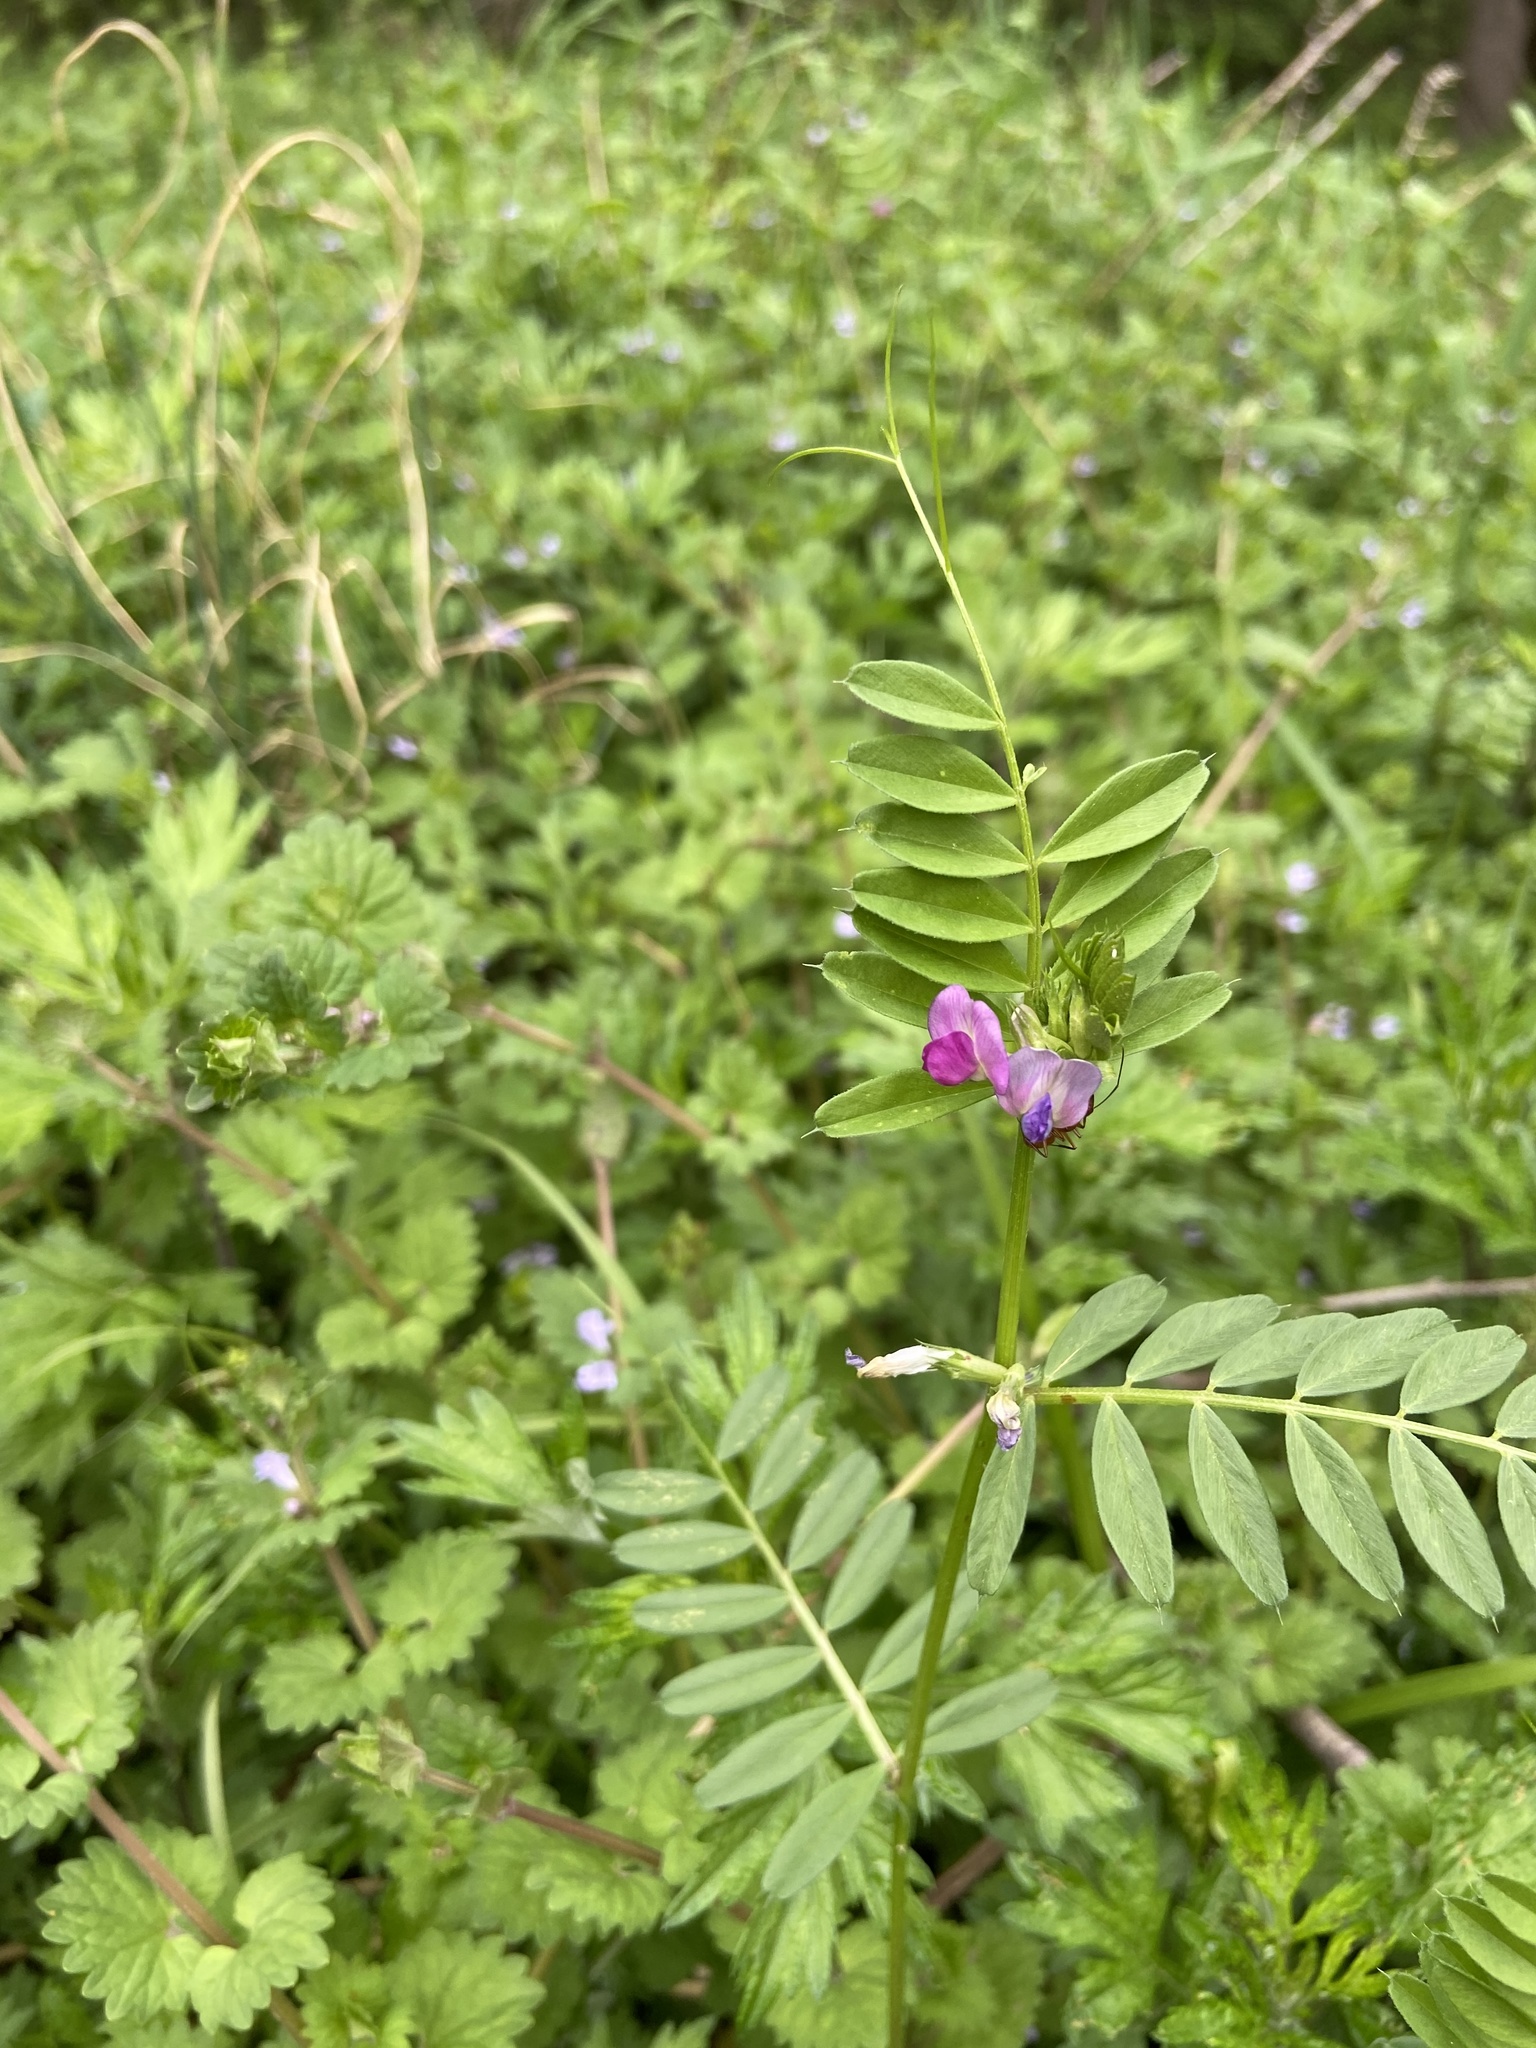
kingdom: Plantae
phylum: Tracheophyta
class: Magnoliopsida
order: Fabales
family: Fabaceae
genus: Vicia
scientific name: Vicia sativa
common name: Garden vetch
